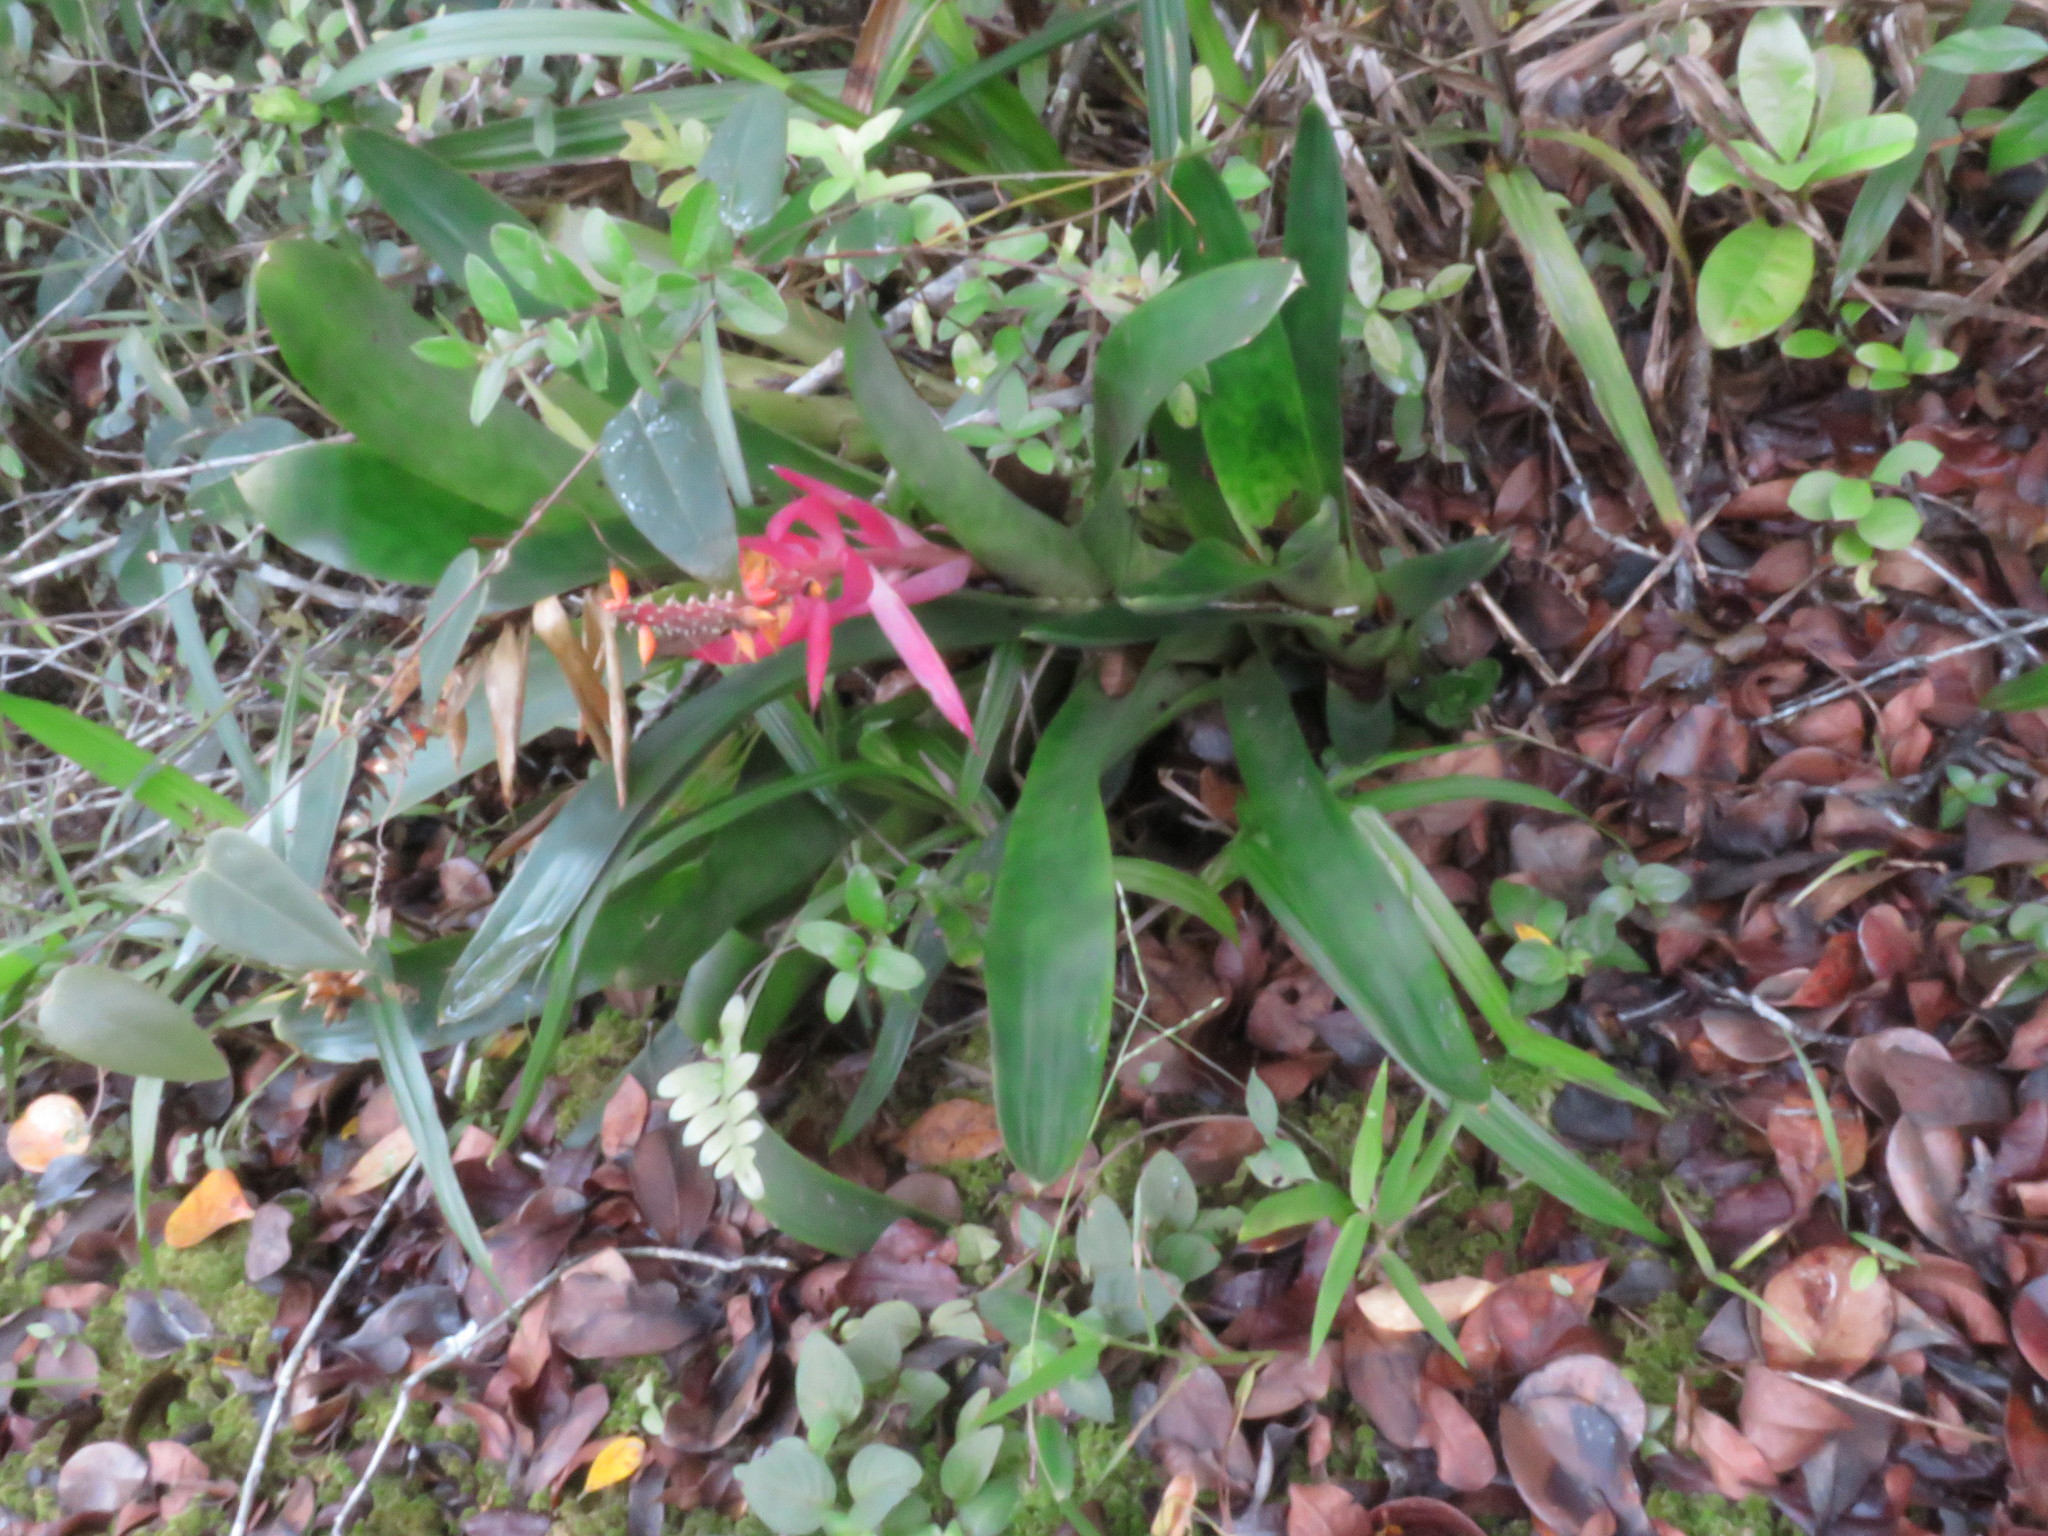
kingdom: Plantae
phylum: Tracheophyta
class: Liliopsida
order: Poales
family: Bromeliaceae
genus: Aechmea
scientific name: Aechmea nudicaulis
